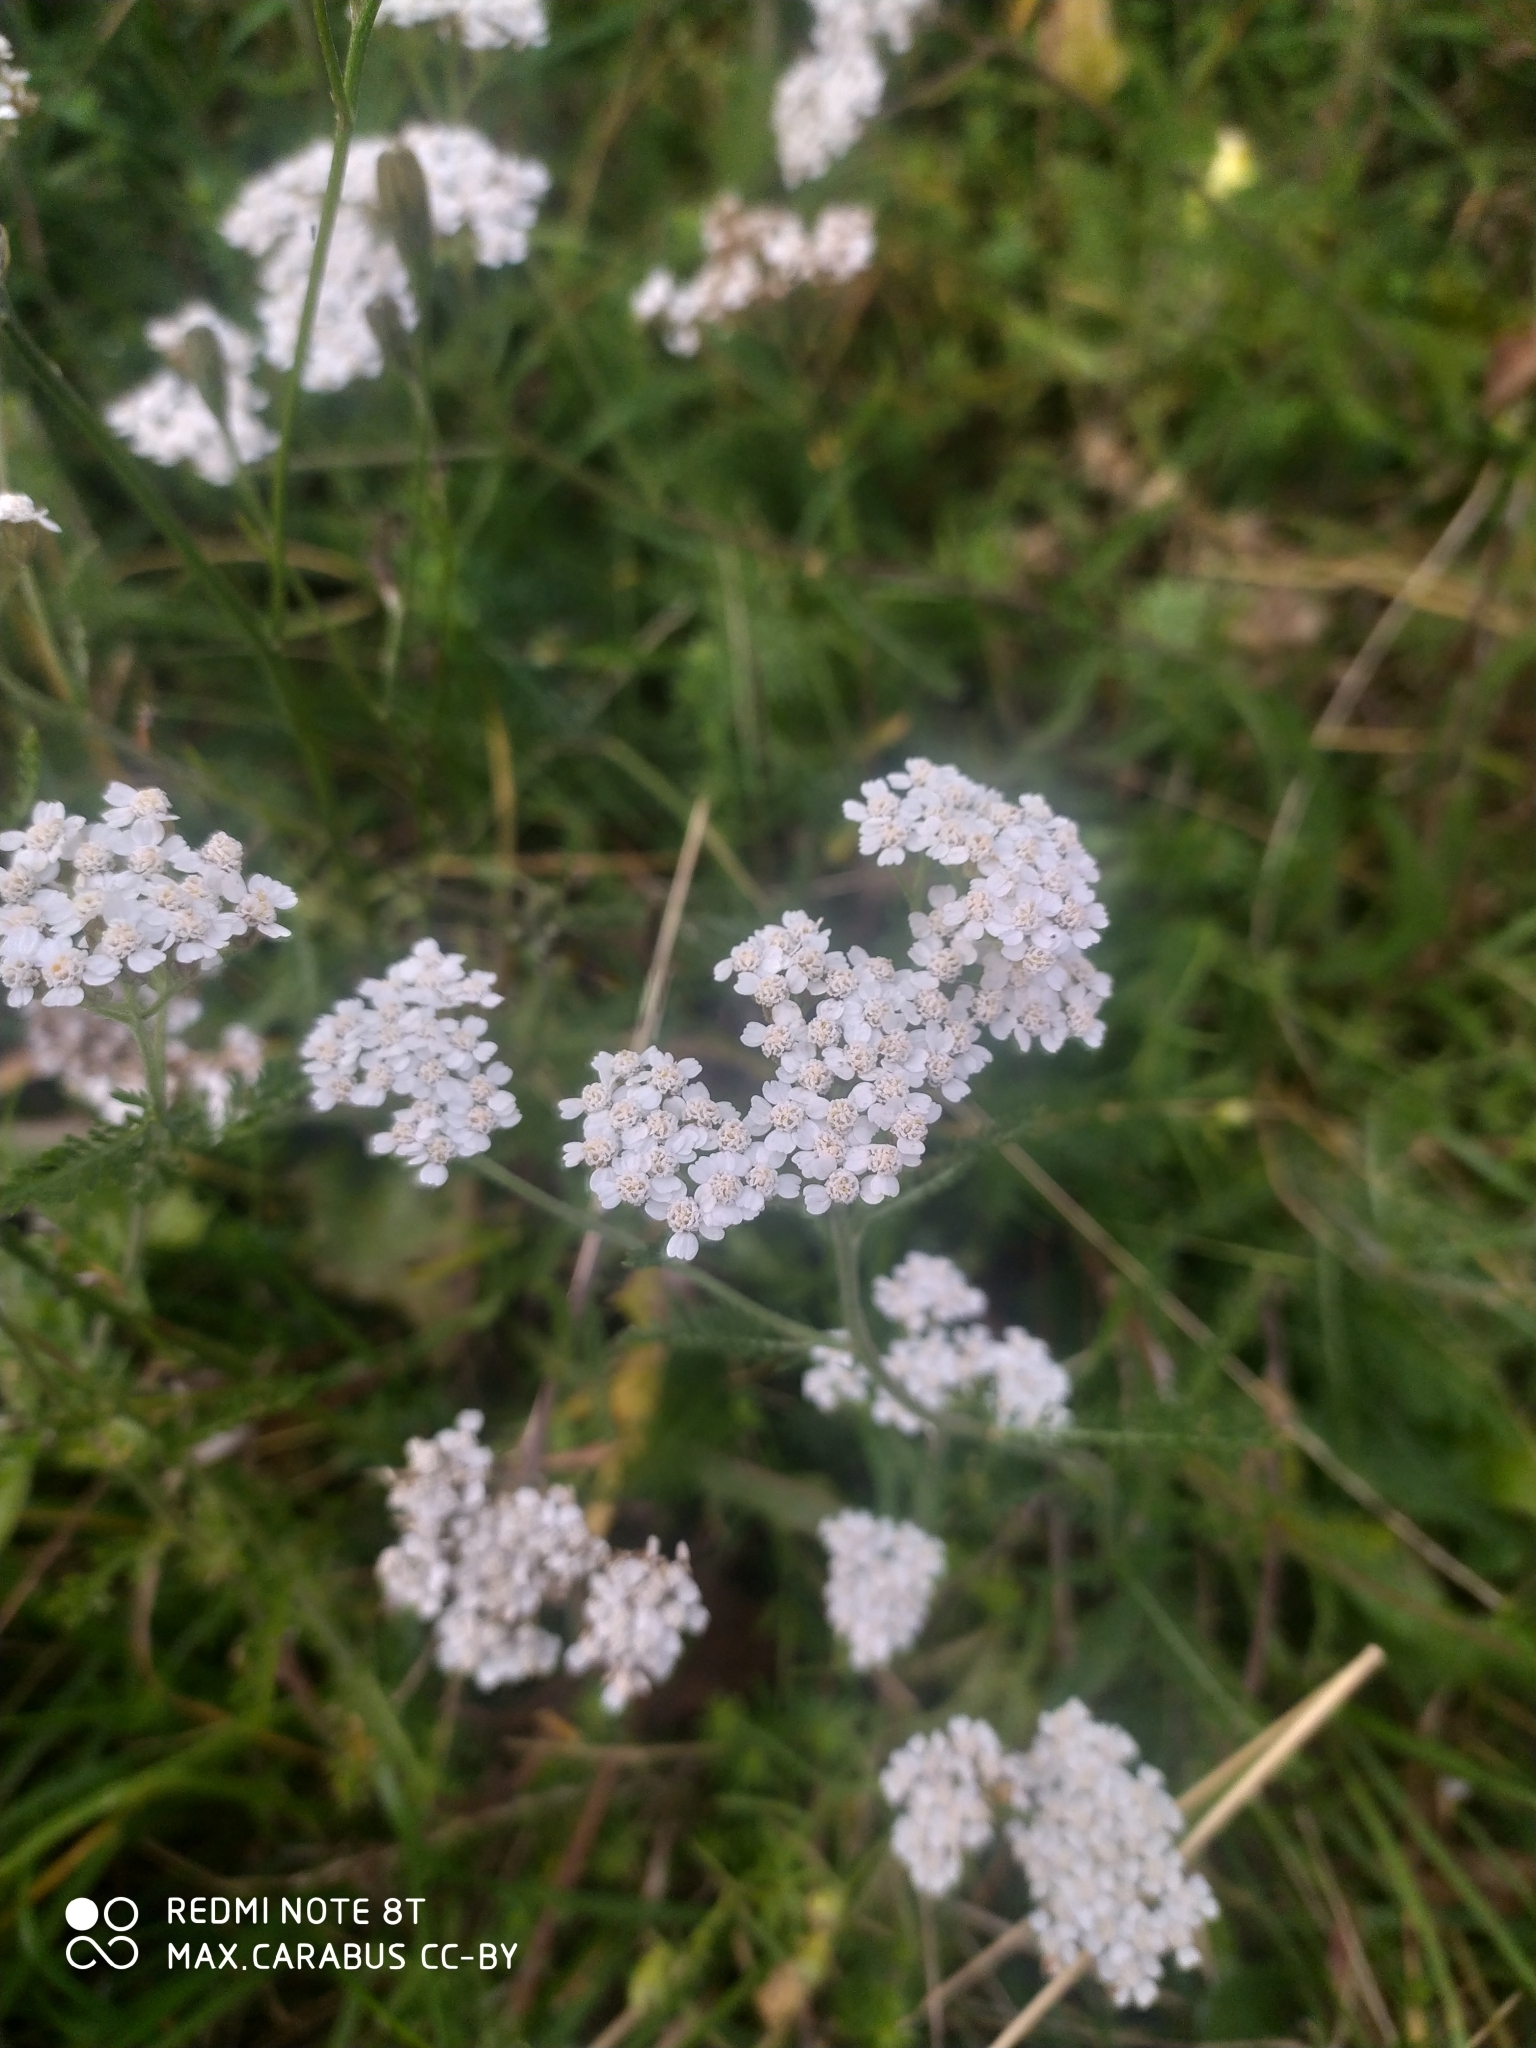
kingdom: Plantae
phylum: Tracheophyta
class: Magnoliopsida
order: Asterales
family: Asteraceae
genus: Achillea
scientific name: Achillea millefolium
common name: Yarrow
